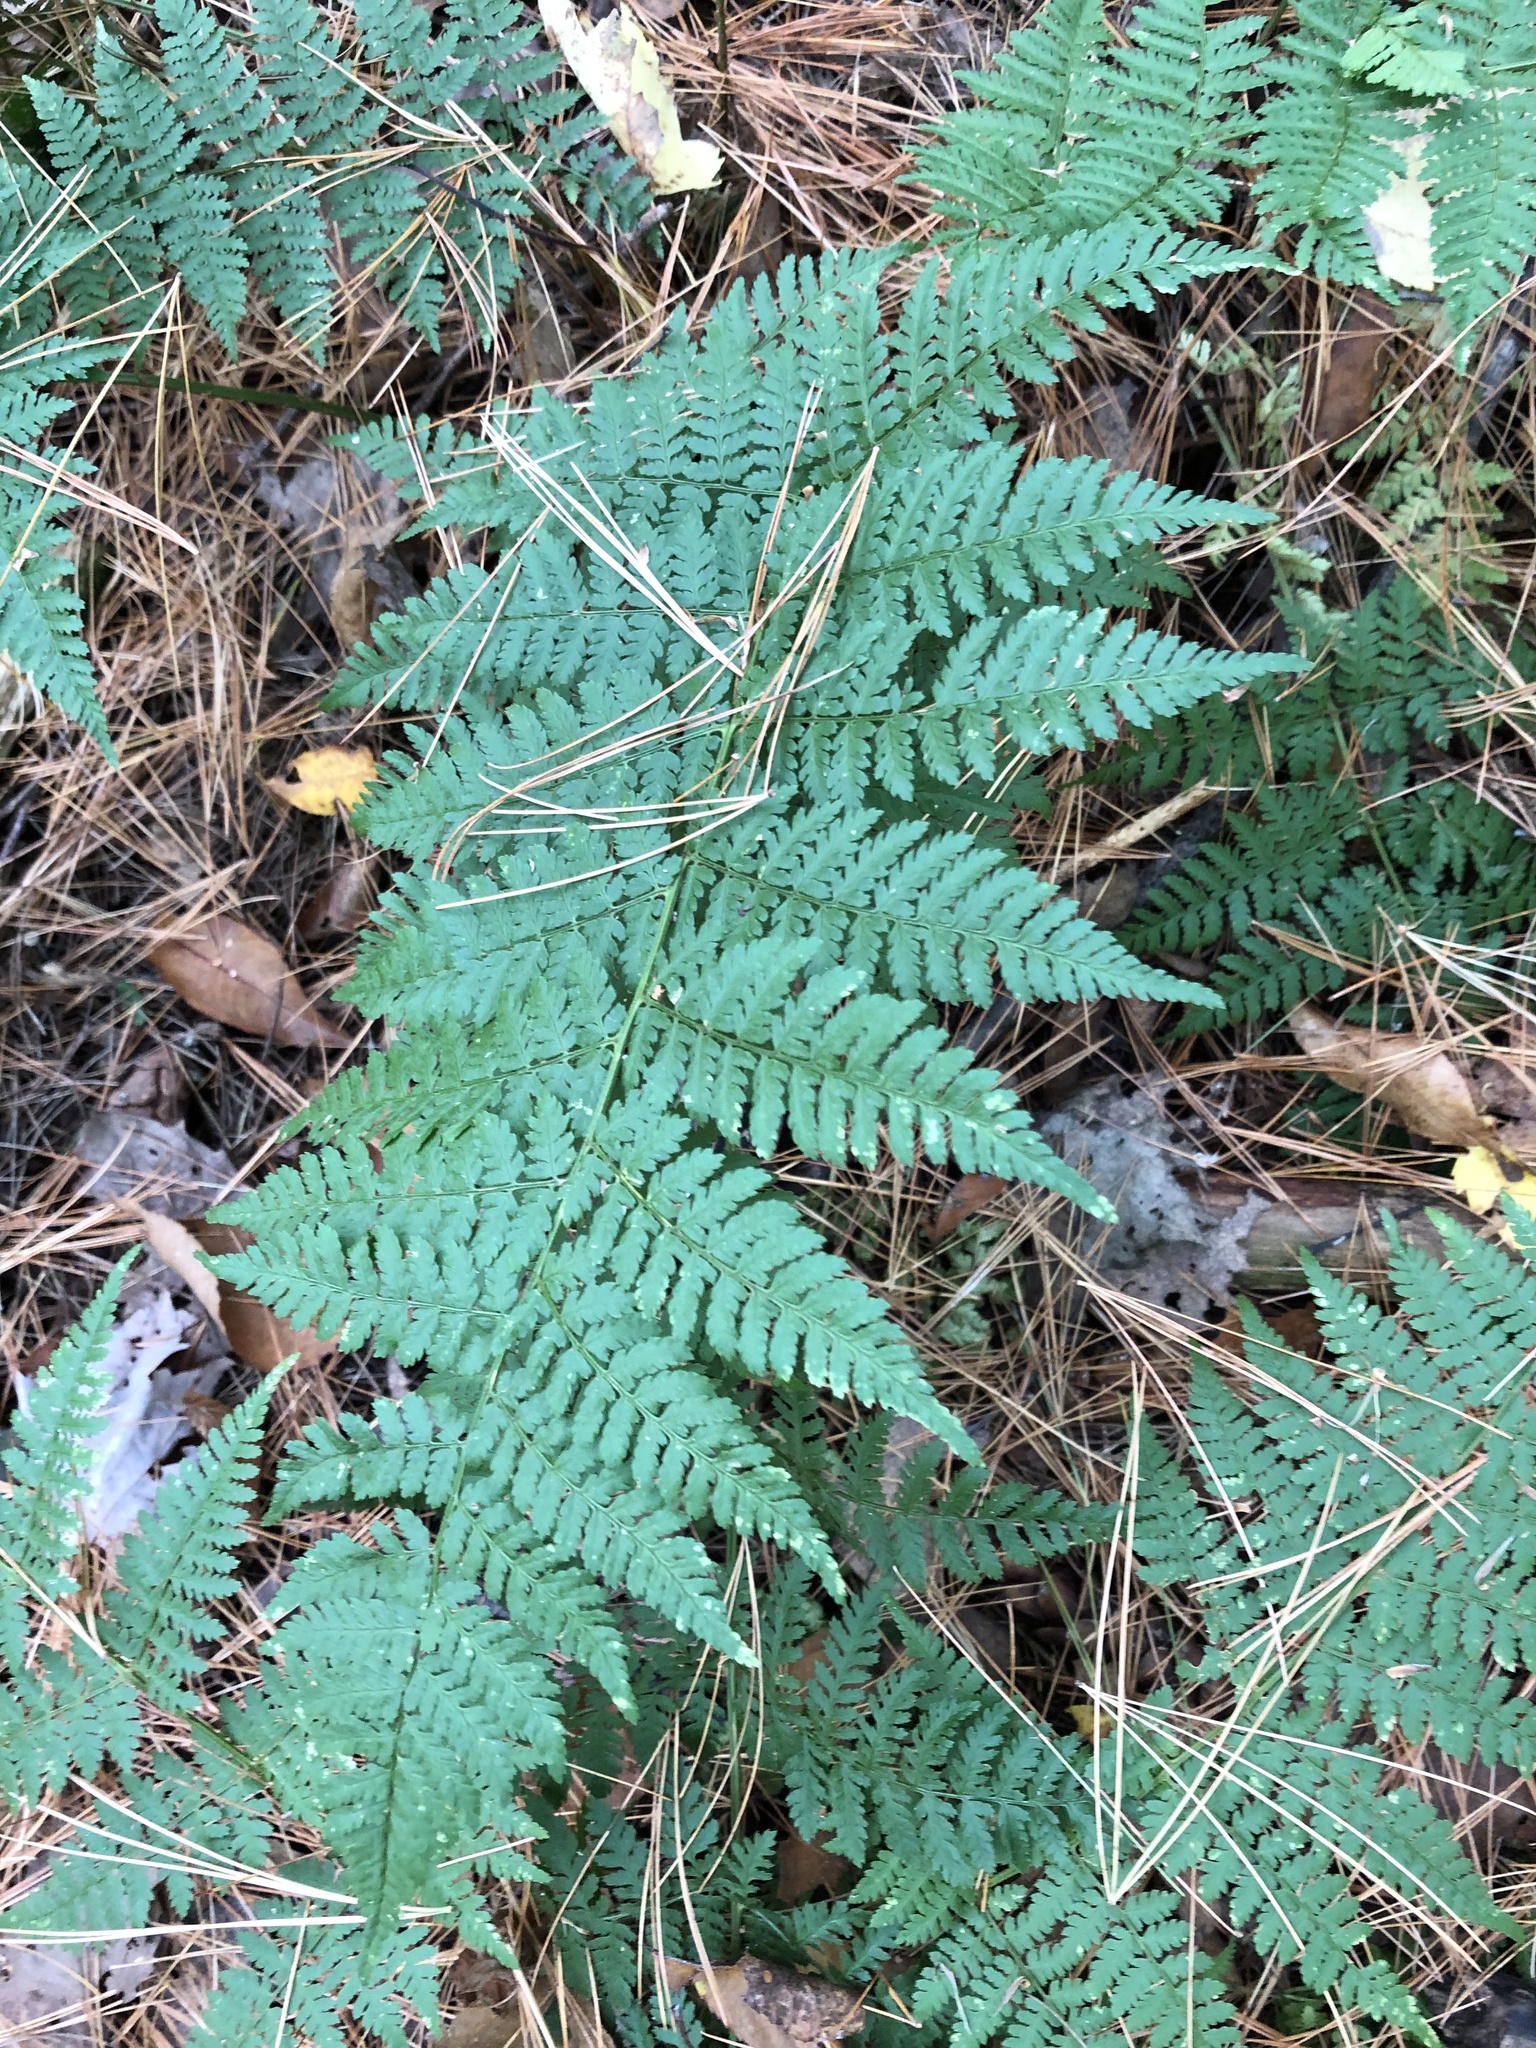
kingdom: Plantae
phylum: Tracheophyta
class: Polypodiopsida
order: Polypodiales
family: Dryopteridaceae
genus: Dryopteris
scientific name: Dryopteris intermedia
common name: Evergreen wood fern
